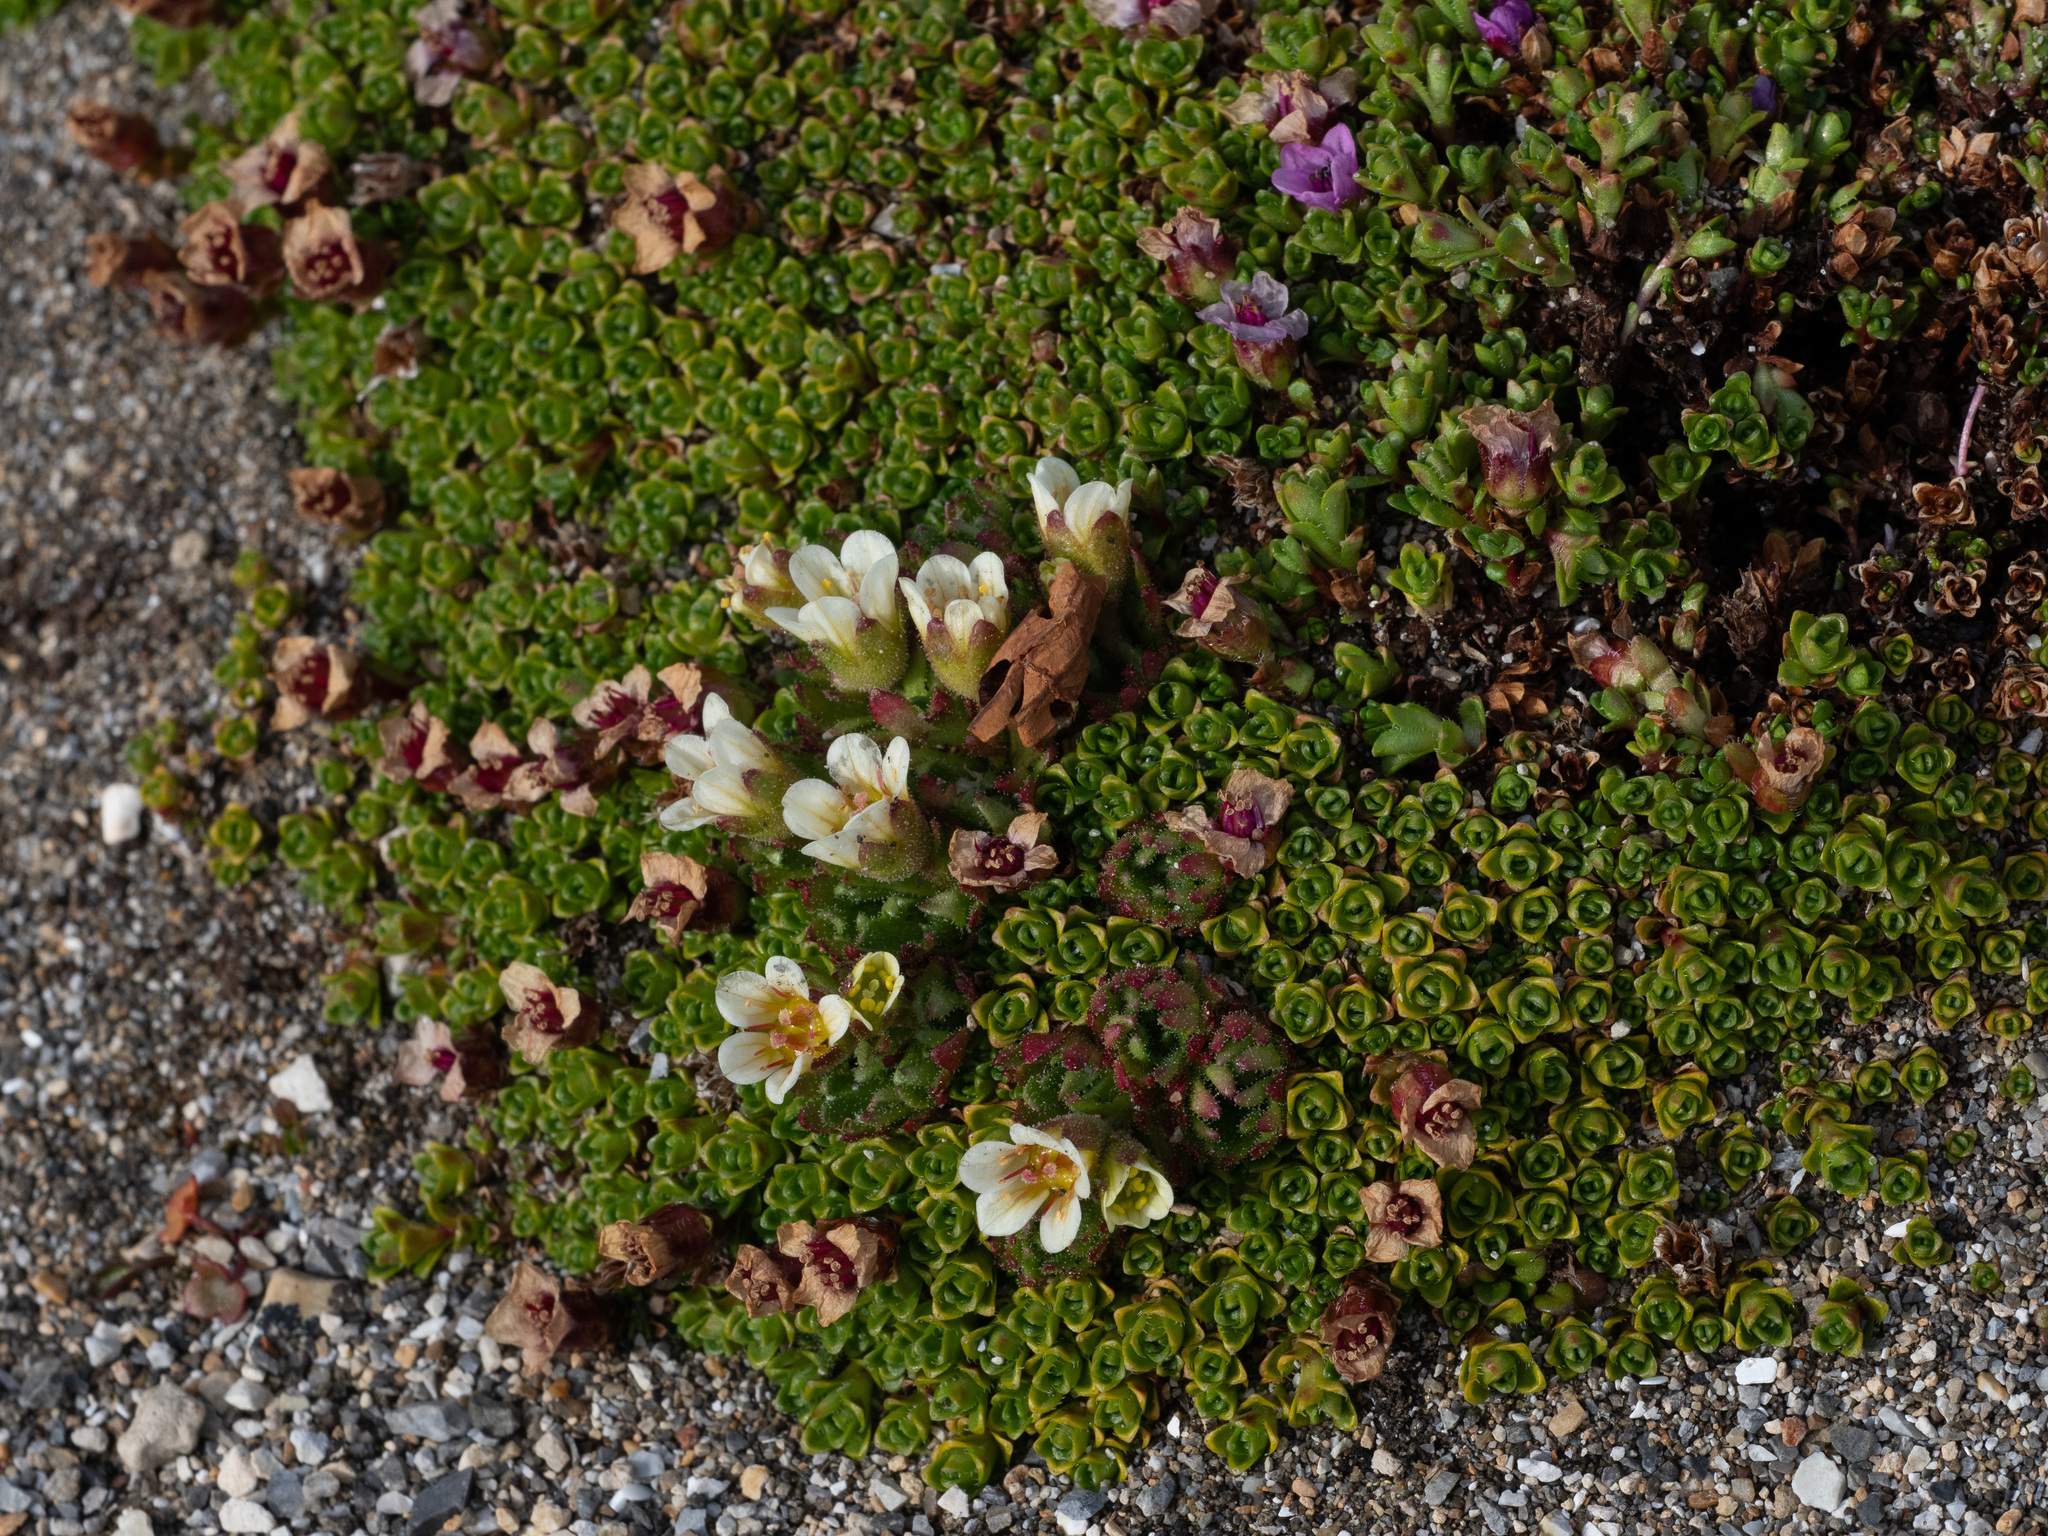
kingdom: Plantae
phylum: Tracheophyta
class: Magnoliopsida
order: Saxifragales
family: Saxifragaceae
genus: Saxifraga
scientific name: Saxifraga cespitosa
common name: Tufted saxifrage
